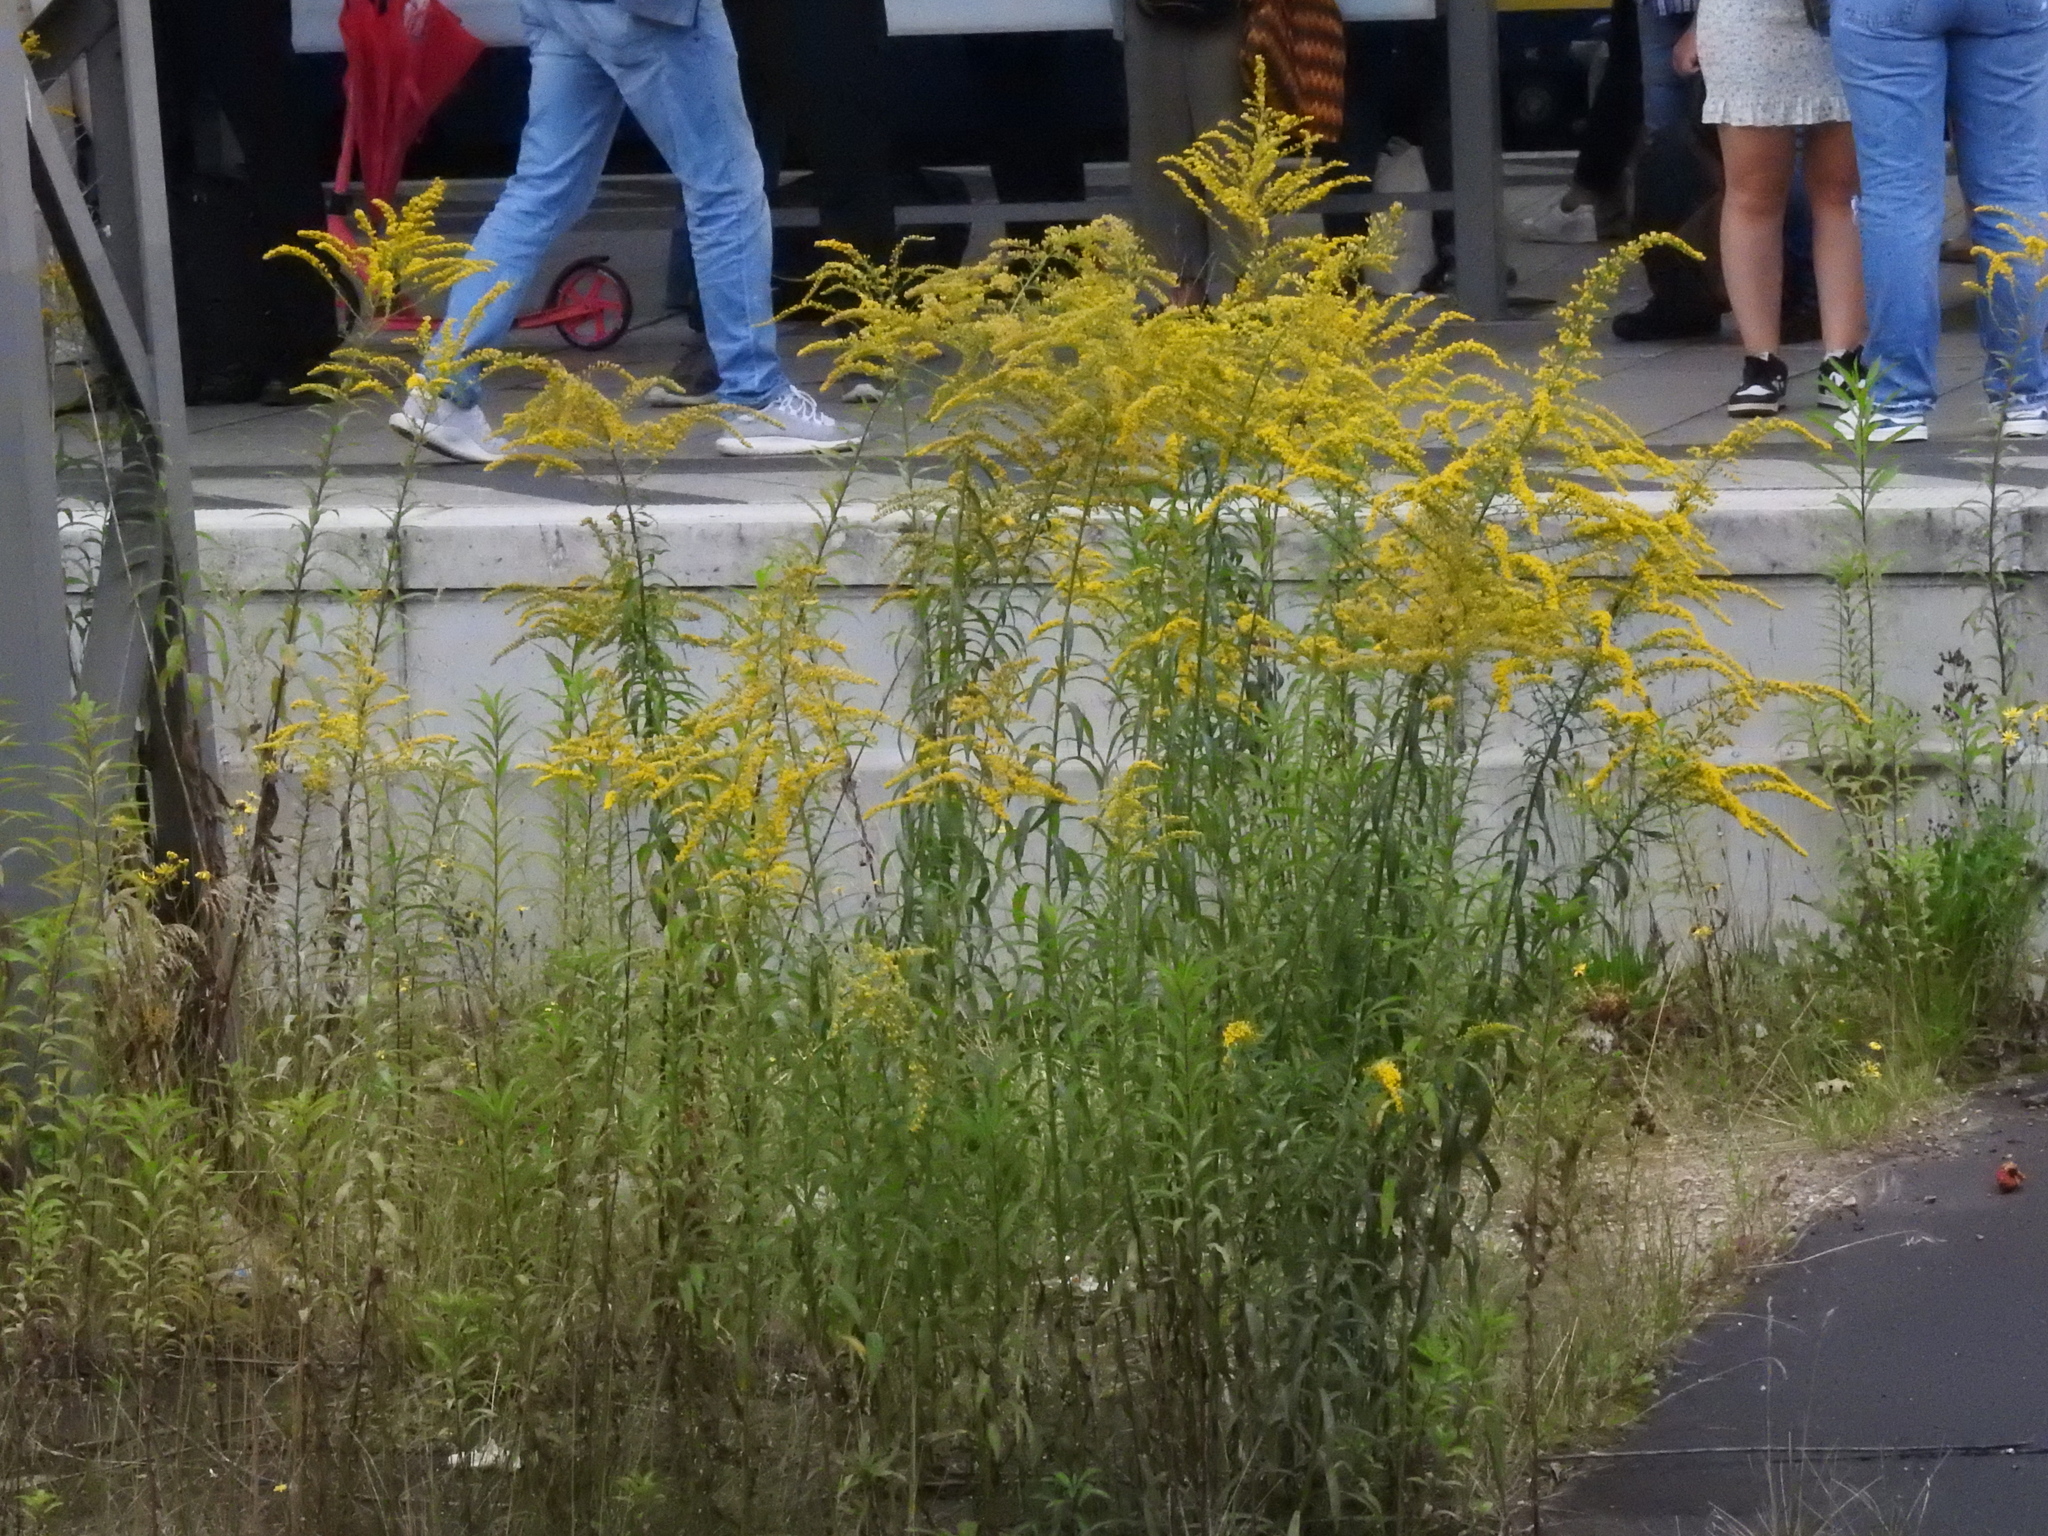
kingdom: Plantae
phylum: Tracheophyta
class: Magnoliopsida
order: Asterales
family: Asteraceae
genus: Solidago
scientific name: Solidago canadensis
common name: Canada goldenrod
